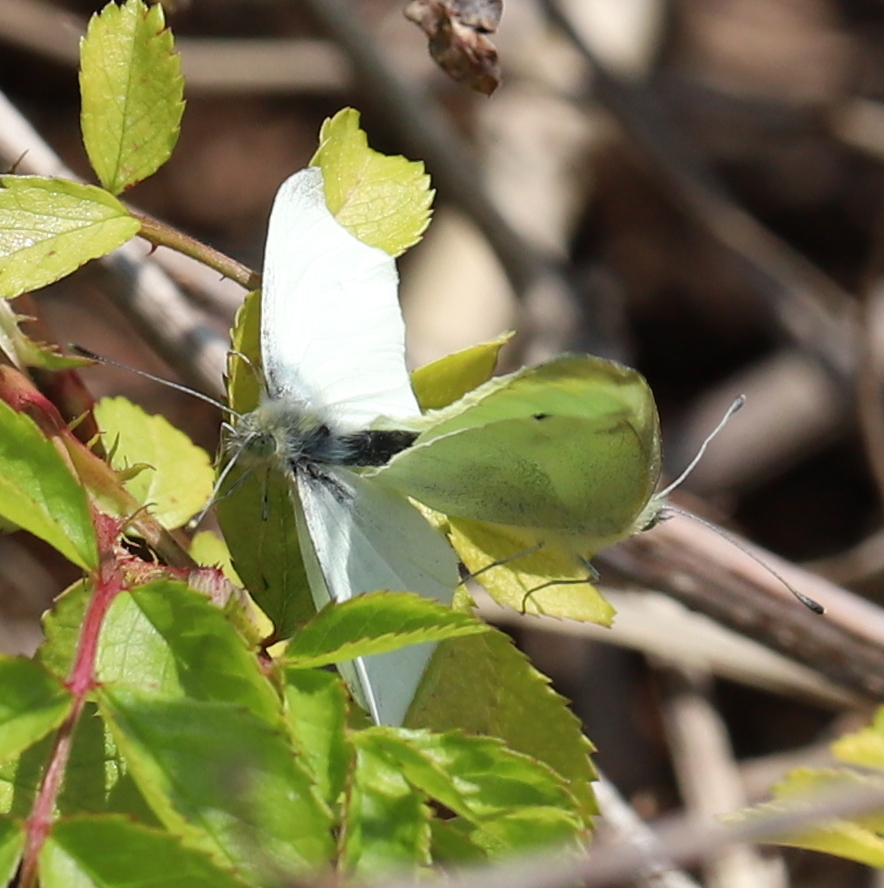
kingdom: Animalia
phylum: Arthropoda
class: Insecta
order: Lepidoptera
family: Pieridae
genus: Pieris
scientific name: Pieris rapae
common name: Small white
